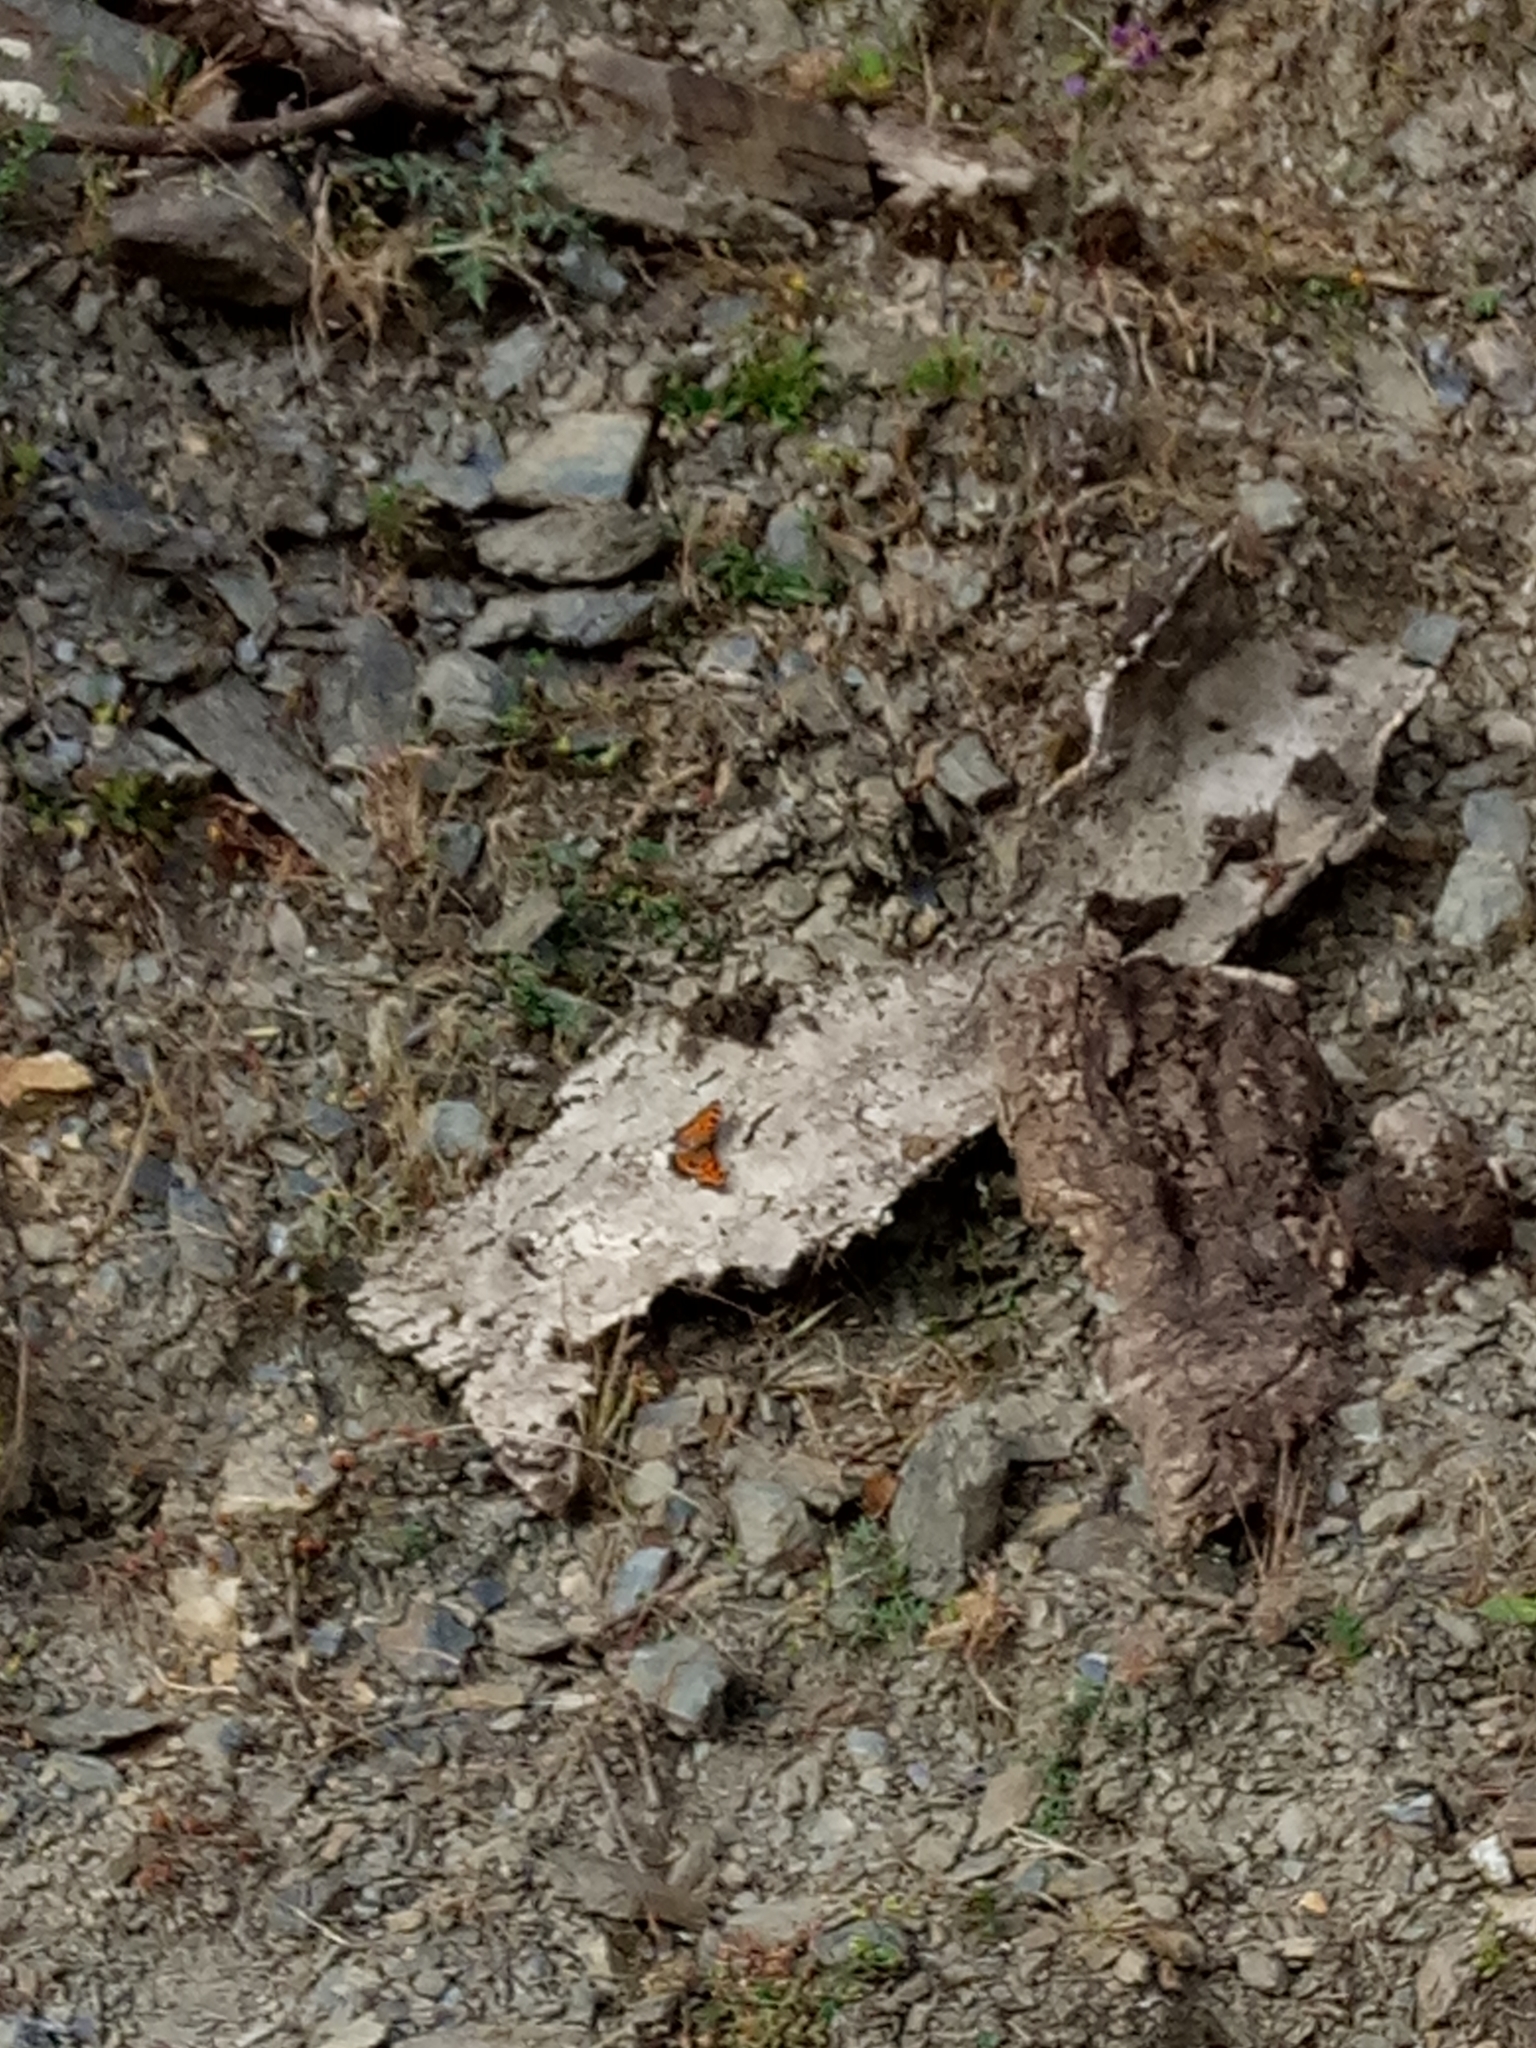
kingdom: Animalia
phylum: Arthropoda
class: Insecta
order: Lepidoptera
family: Nymphalidae
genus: Nymphalis
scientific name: Nymphalis polychloros
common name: Large tortoiseshell
